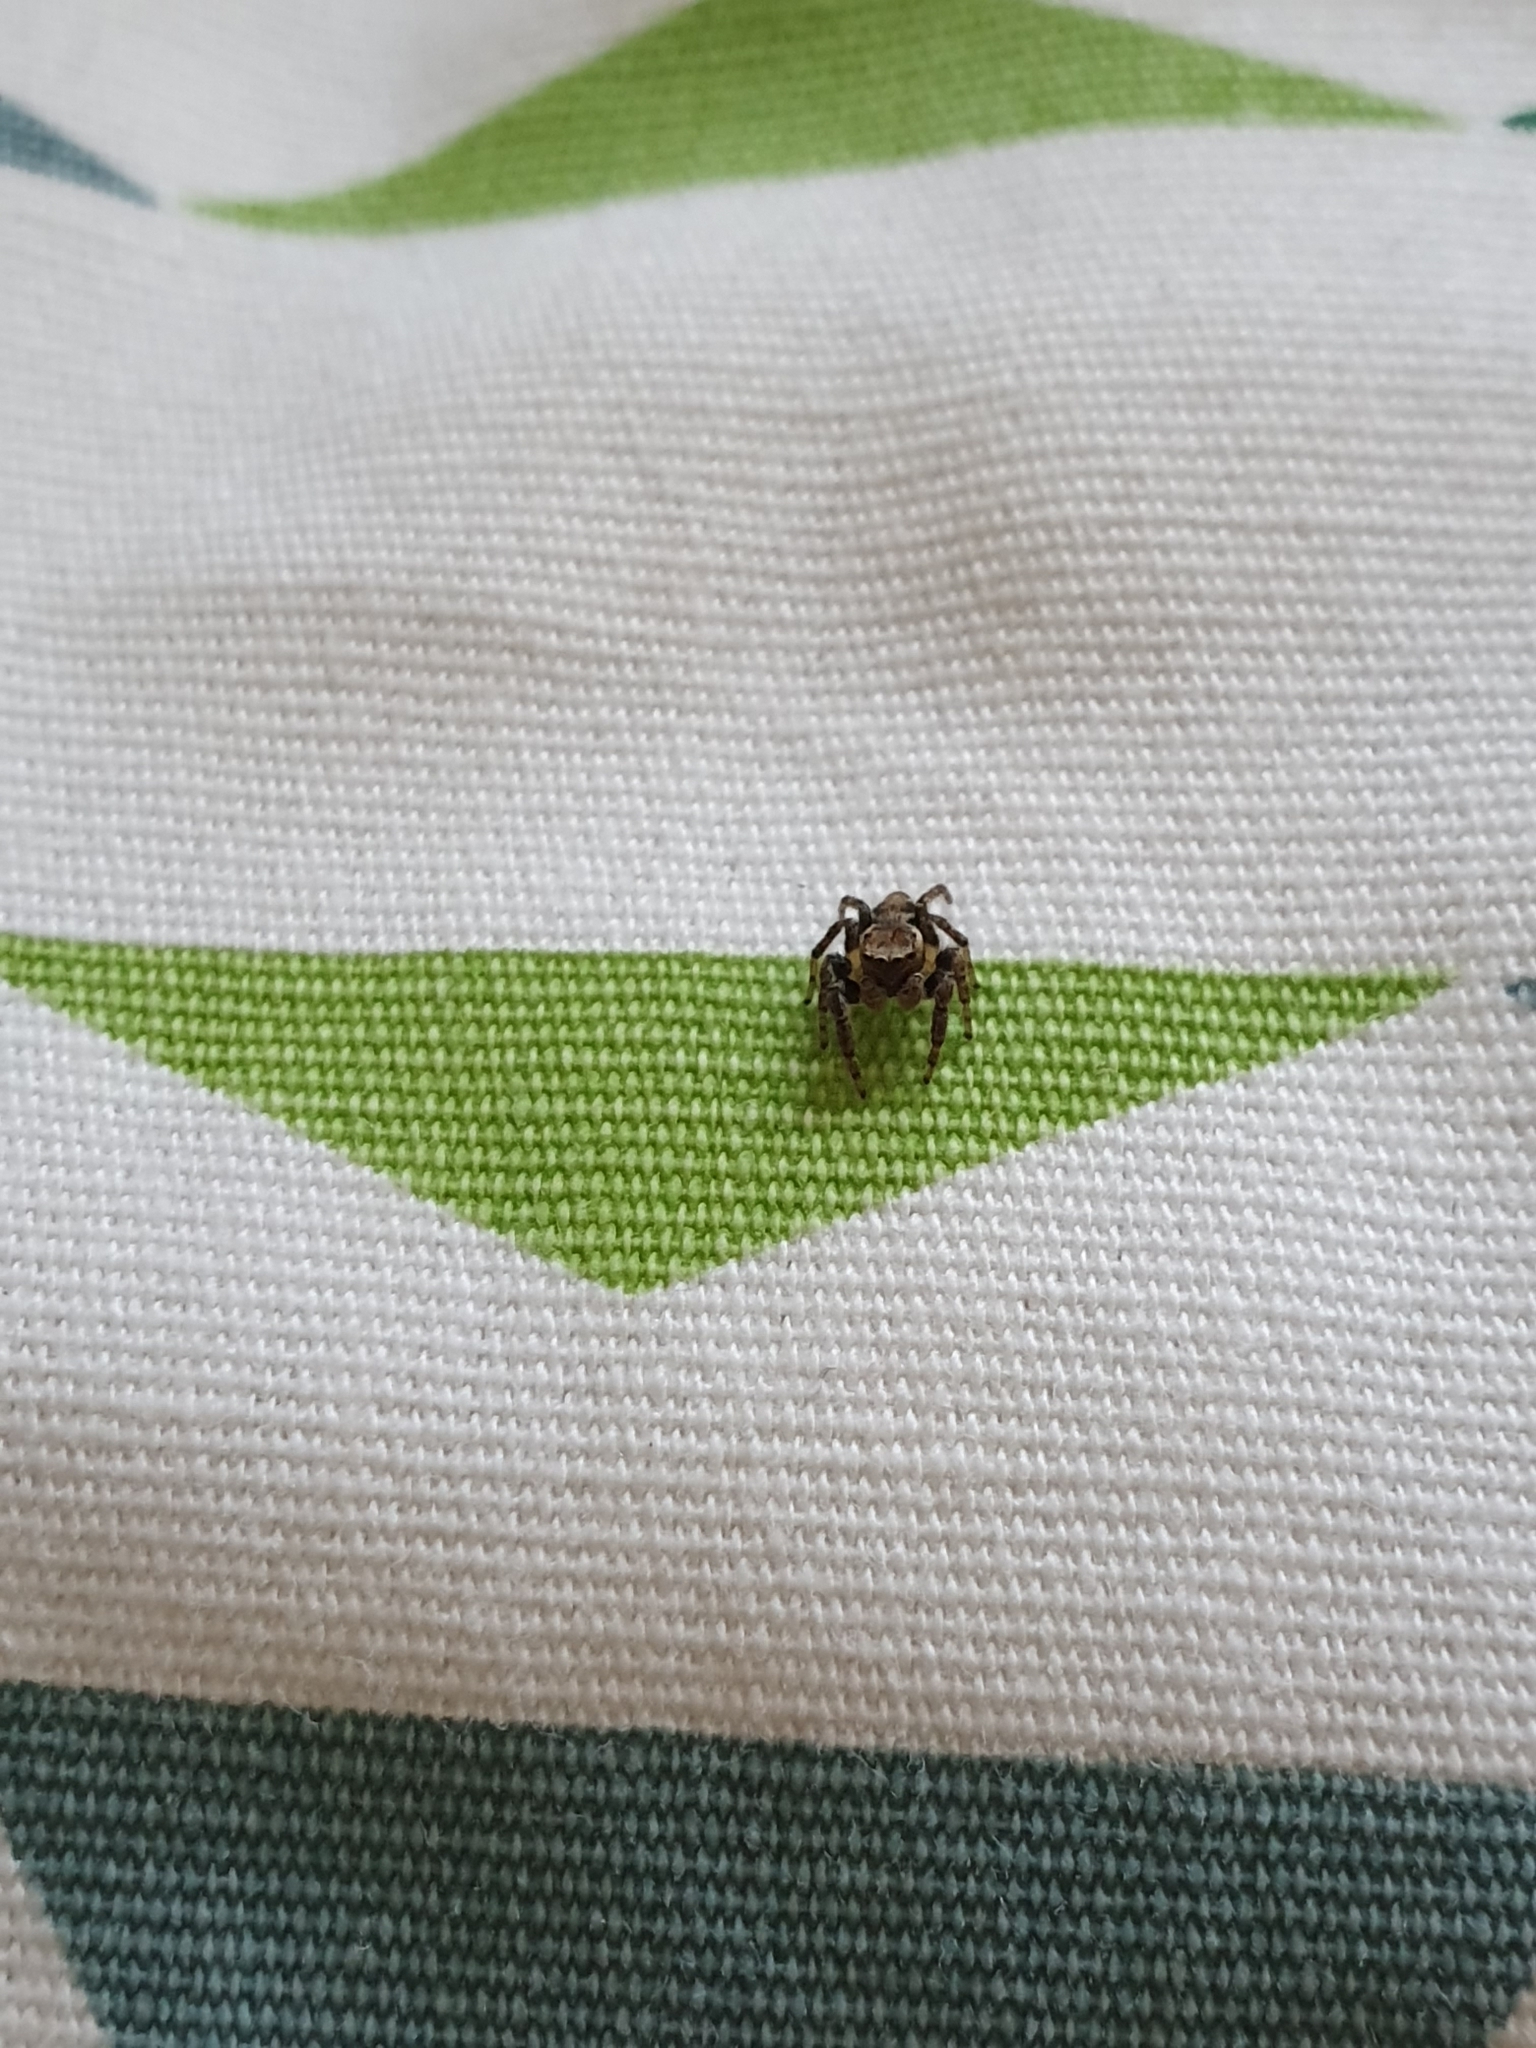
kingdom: Animalia
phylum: Arthropoda
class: Arachnida
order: Araneae
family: Salticidae
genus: Evarcha
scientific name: Evarcha falcata
